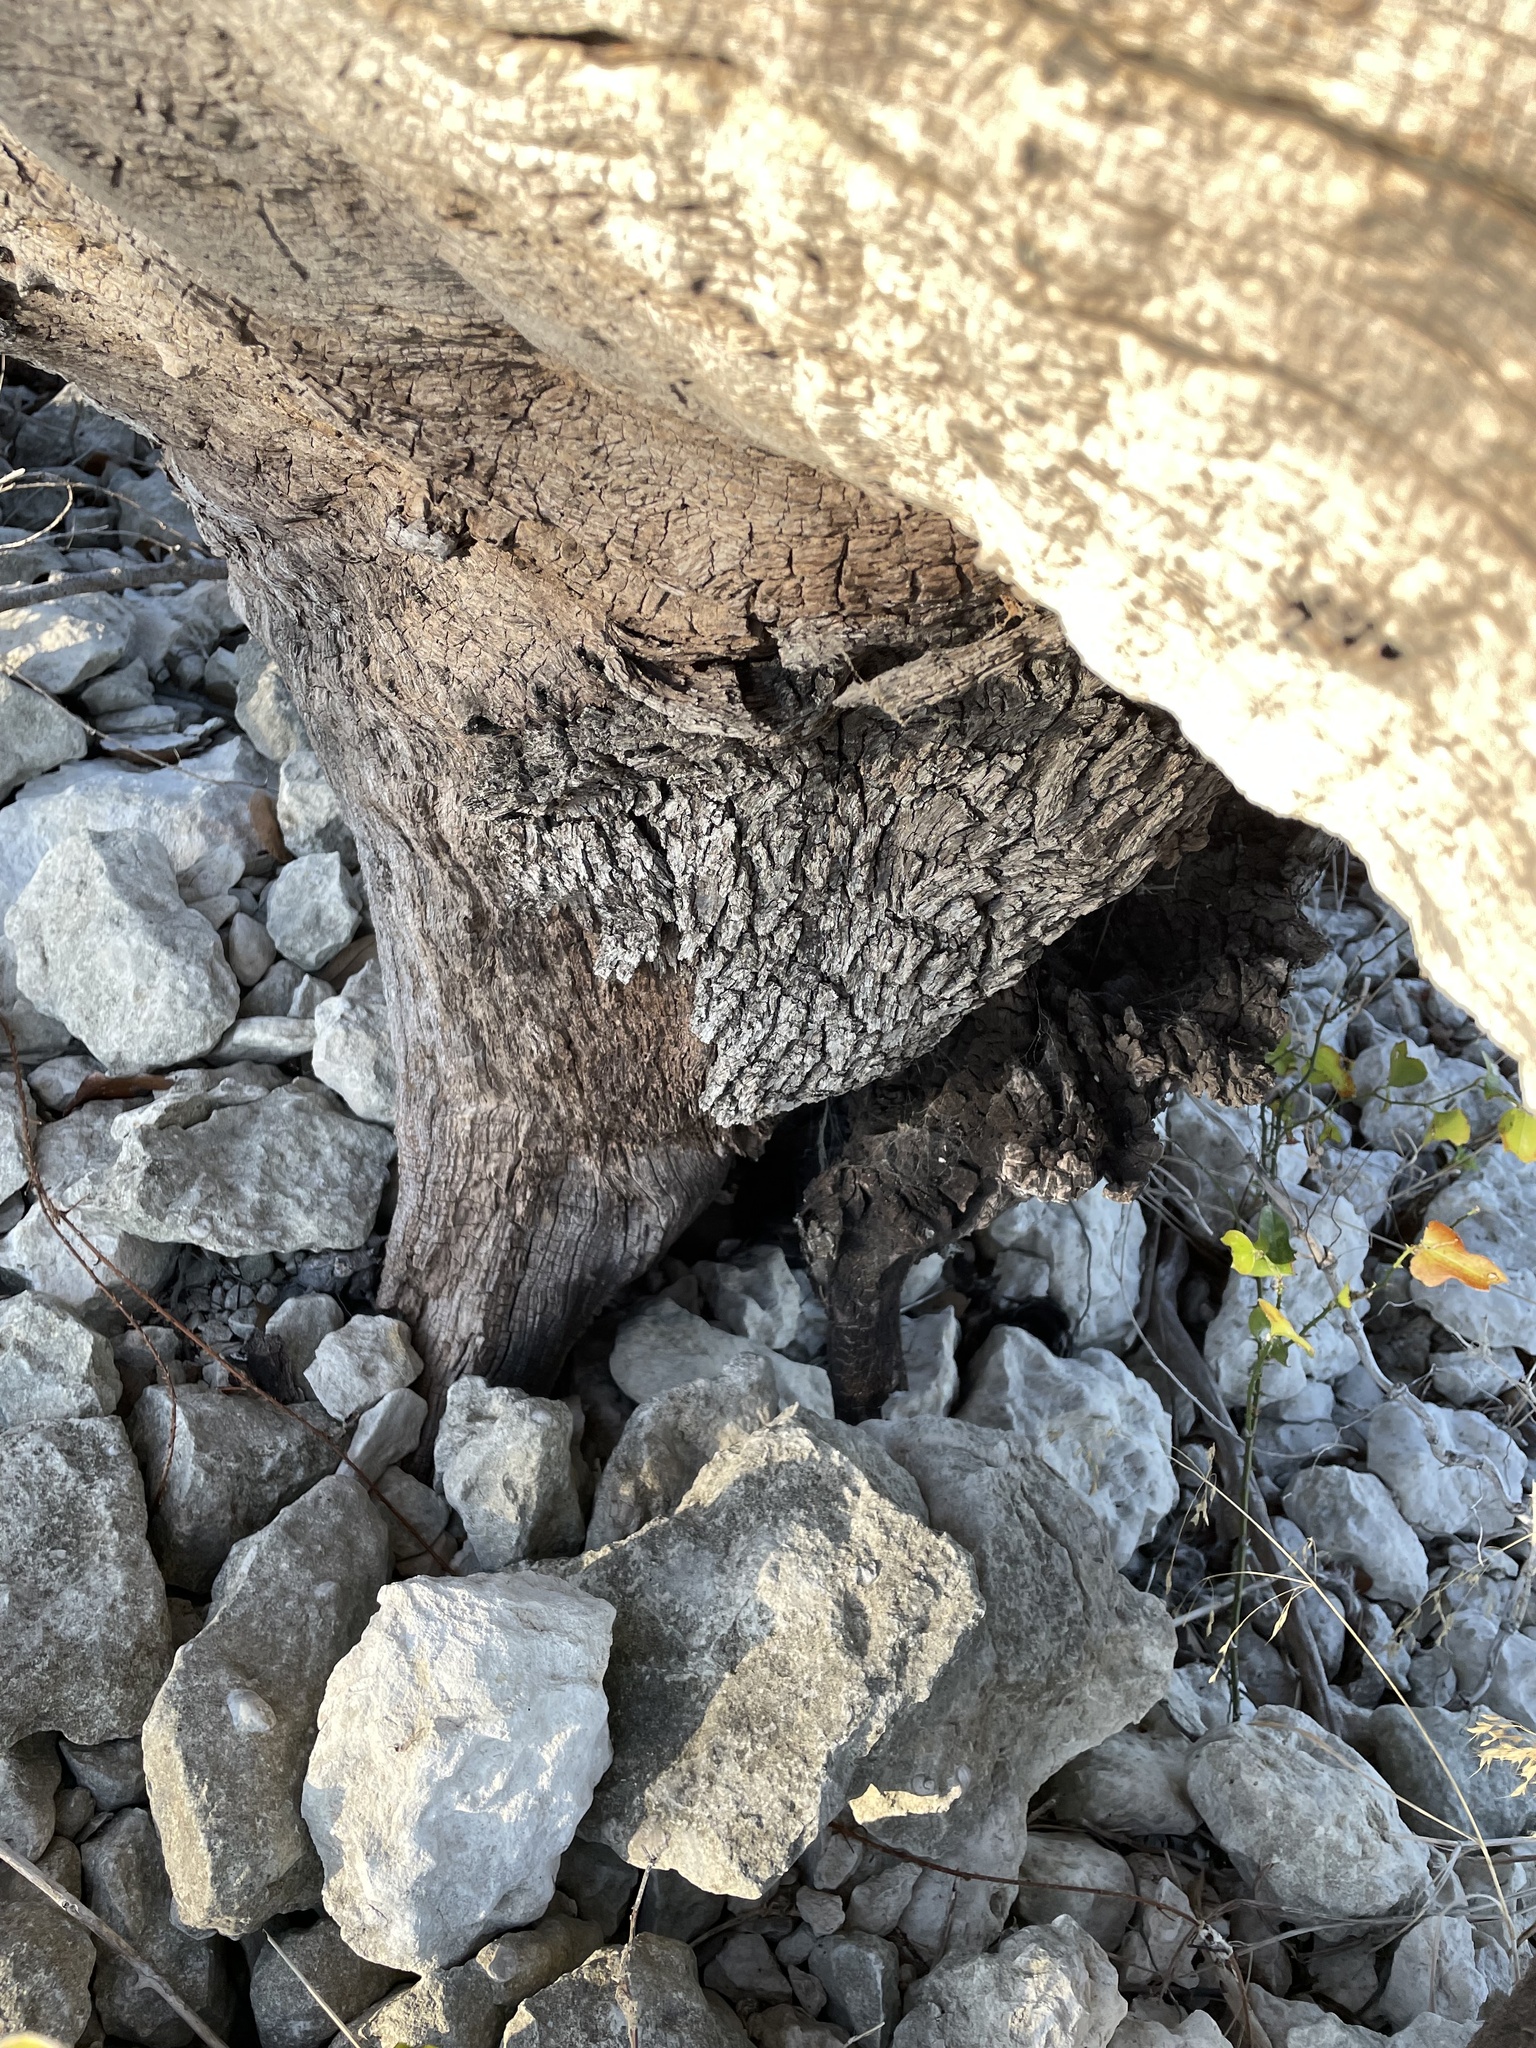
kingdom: Plantae
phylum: Tracheophyta
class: Magnoliopsida
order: Fagales
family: Fagaceae
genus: Quercus
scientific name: Quercus fusiformis
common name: Texas live oak
